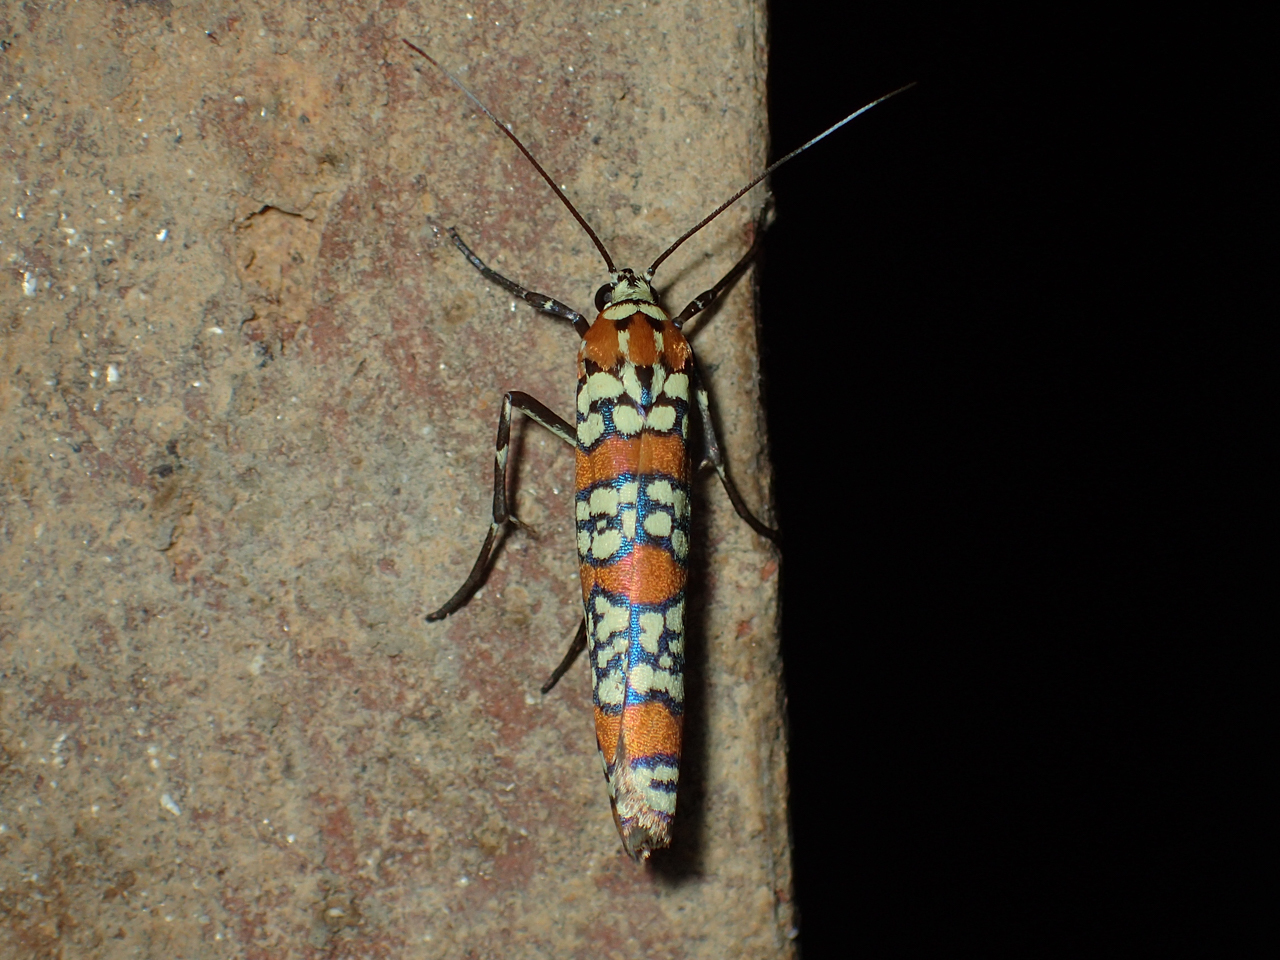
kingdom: Animalia
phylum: Arthropoda
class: Insecta
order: Lepidoptera
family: Attevidae
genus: Atteva
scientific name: Atteva punctella
